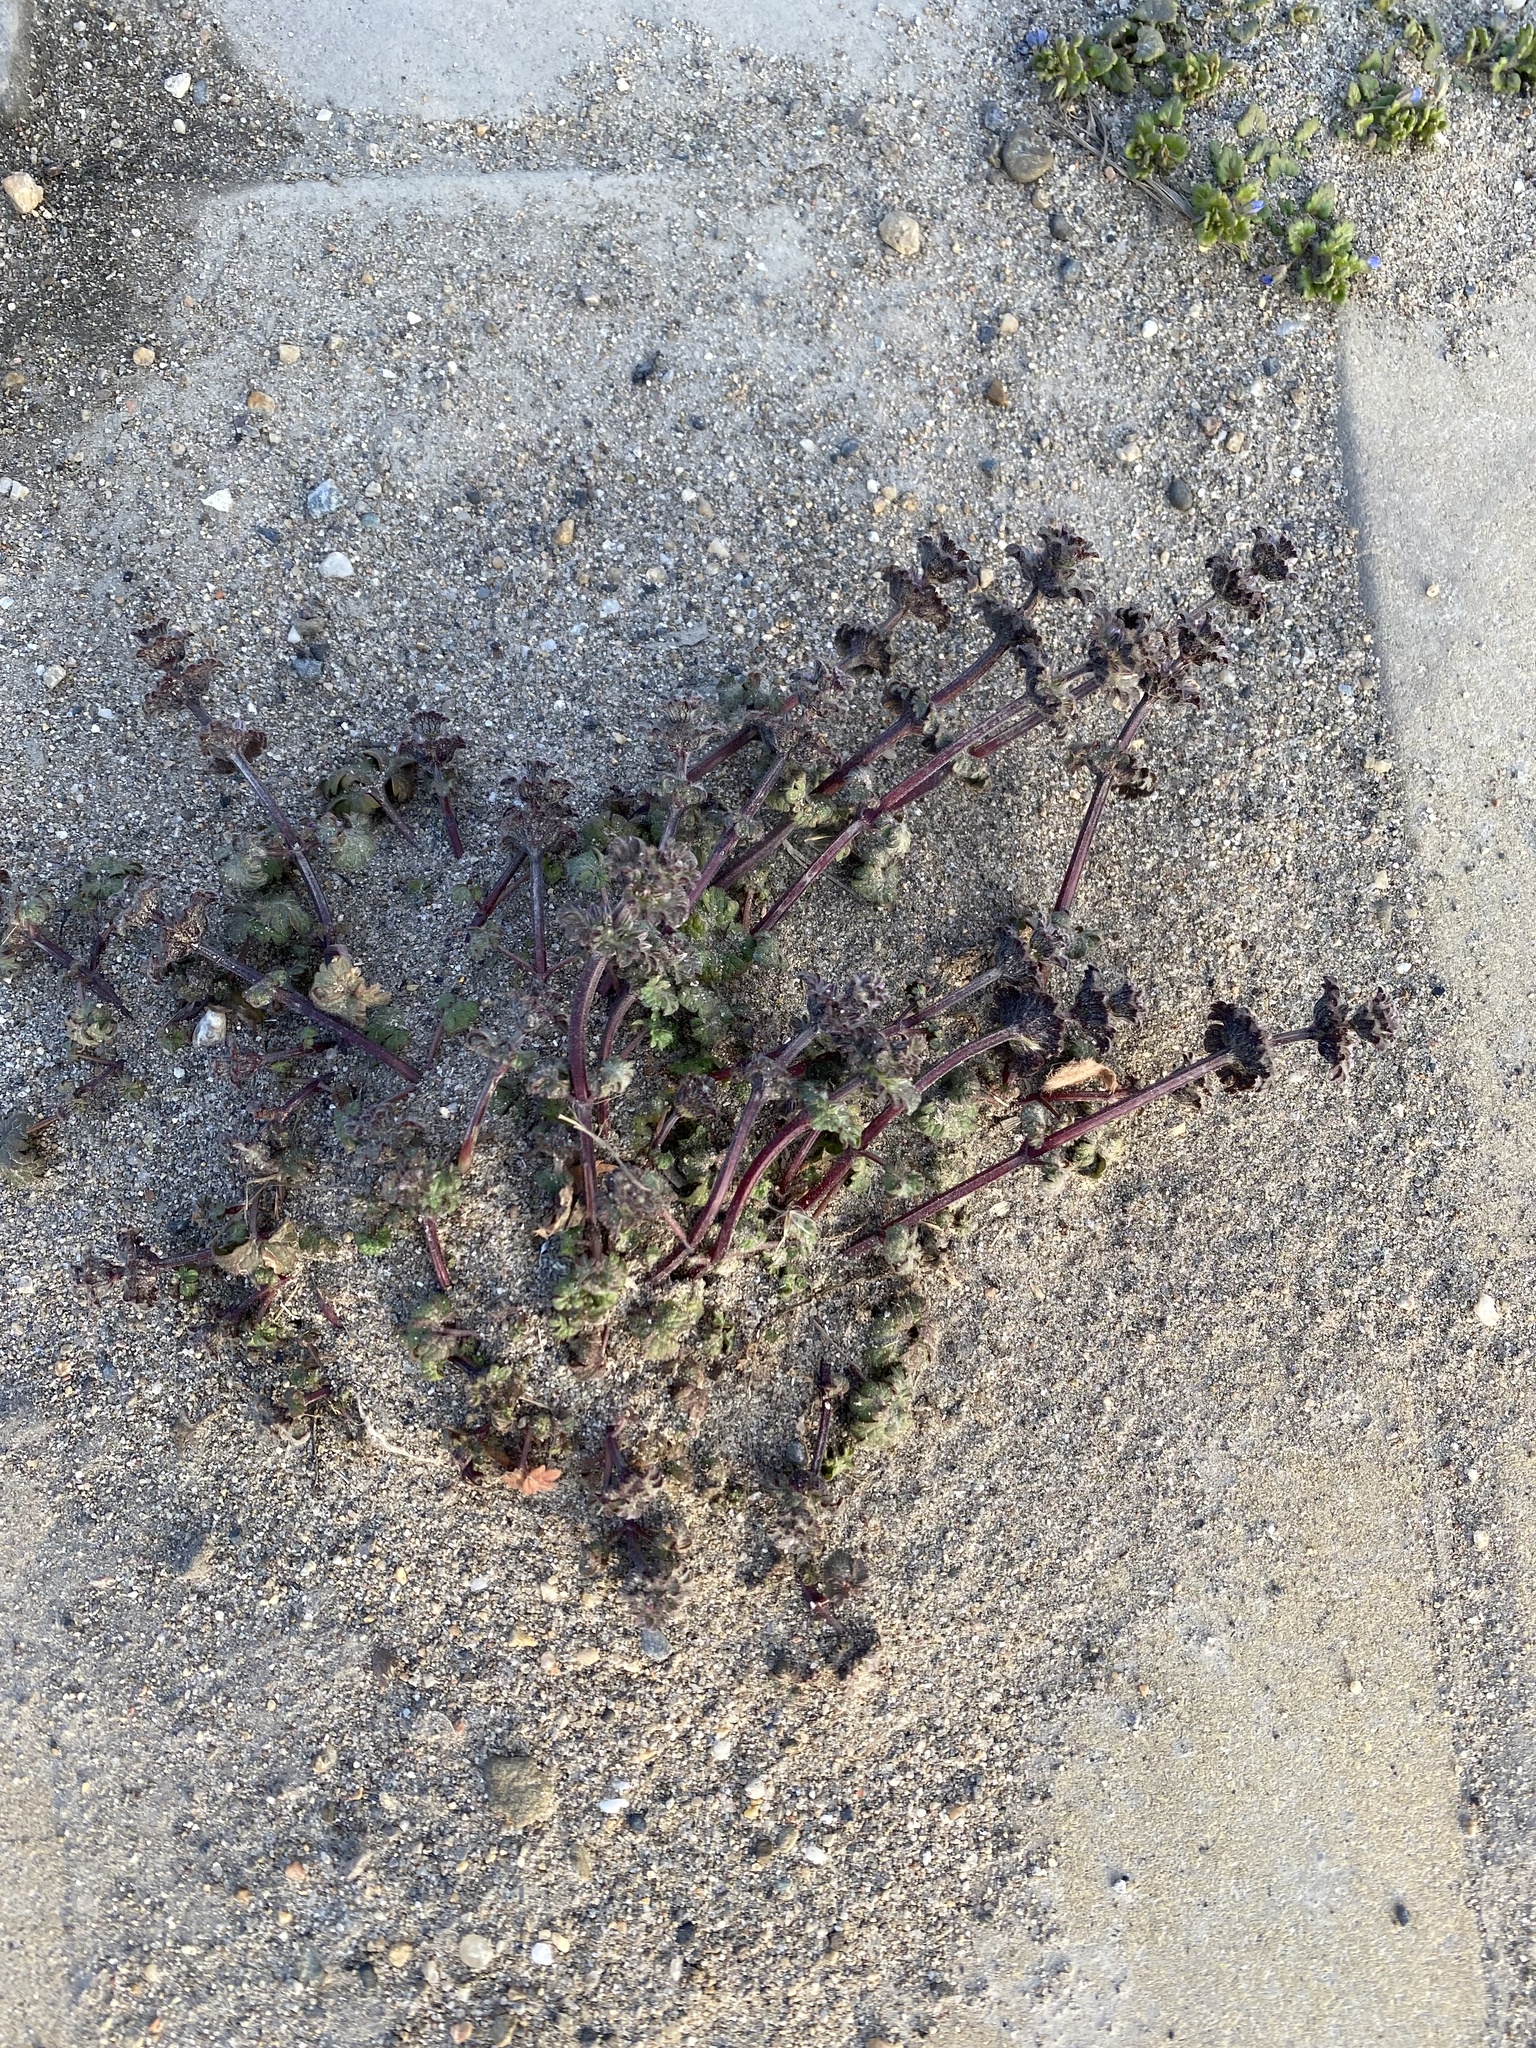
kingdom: Plantae
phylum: Tracheophyta
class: Magnoliopsida
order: Lamiales
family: Lamiaceae
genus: Lamium
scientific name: Lamium amplexicaule
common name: Henbit dead-nettle
